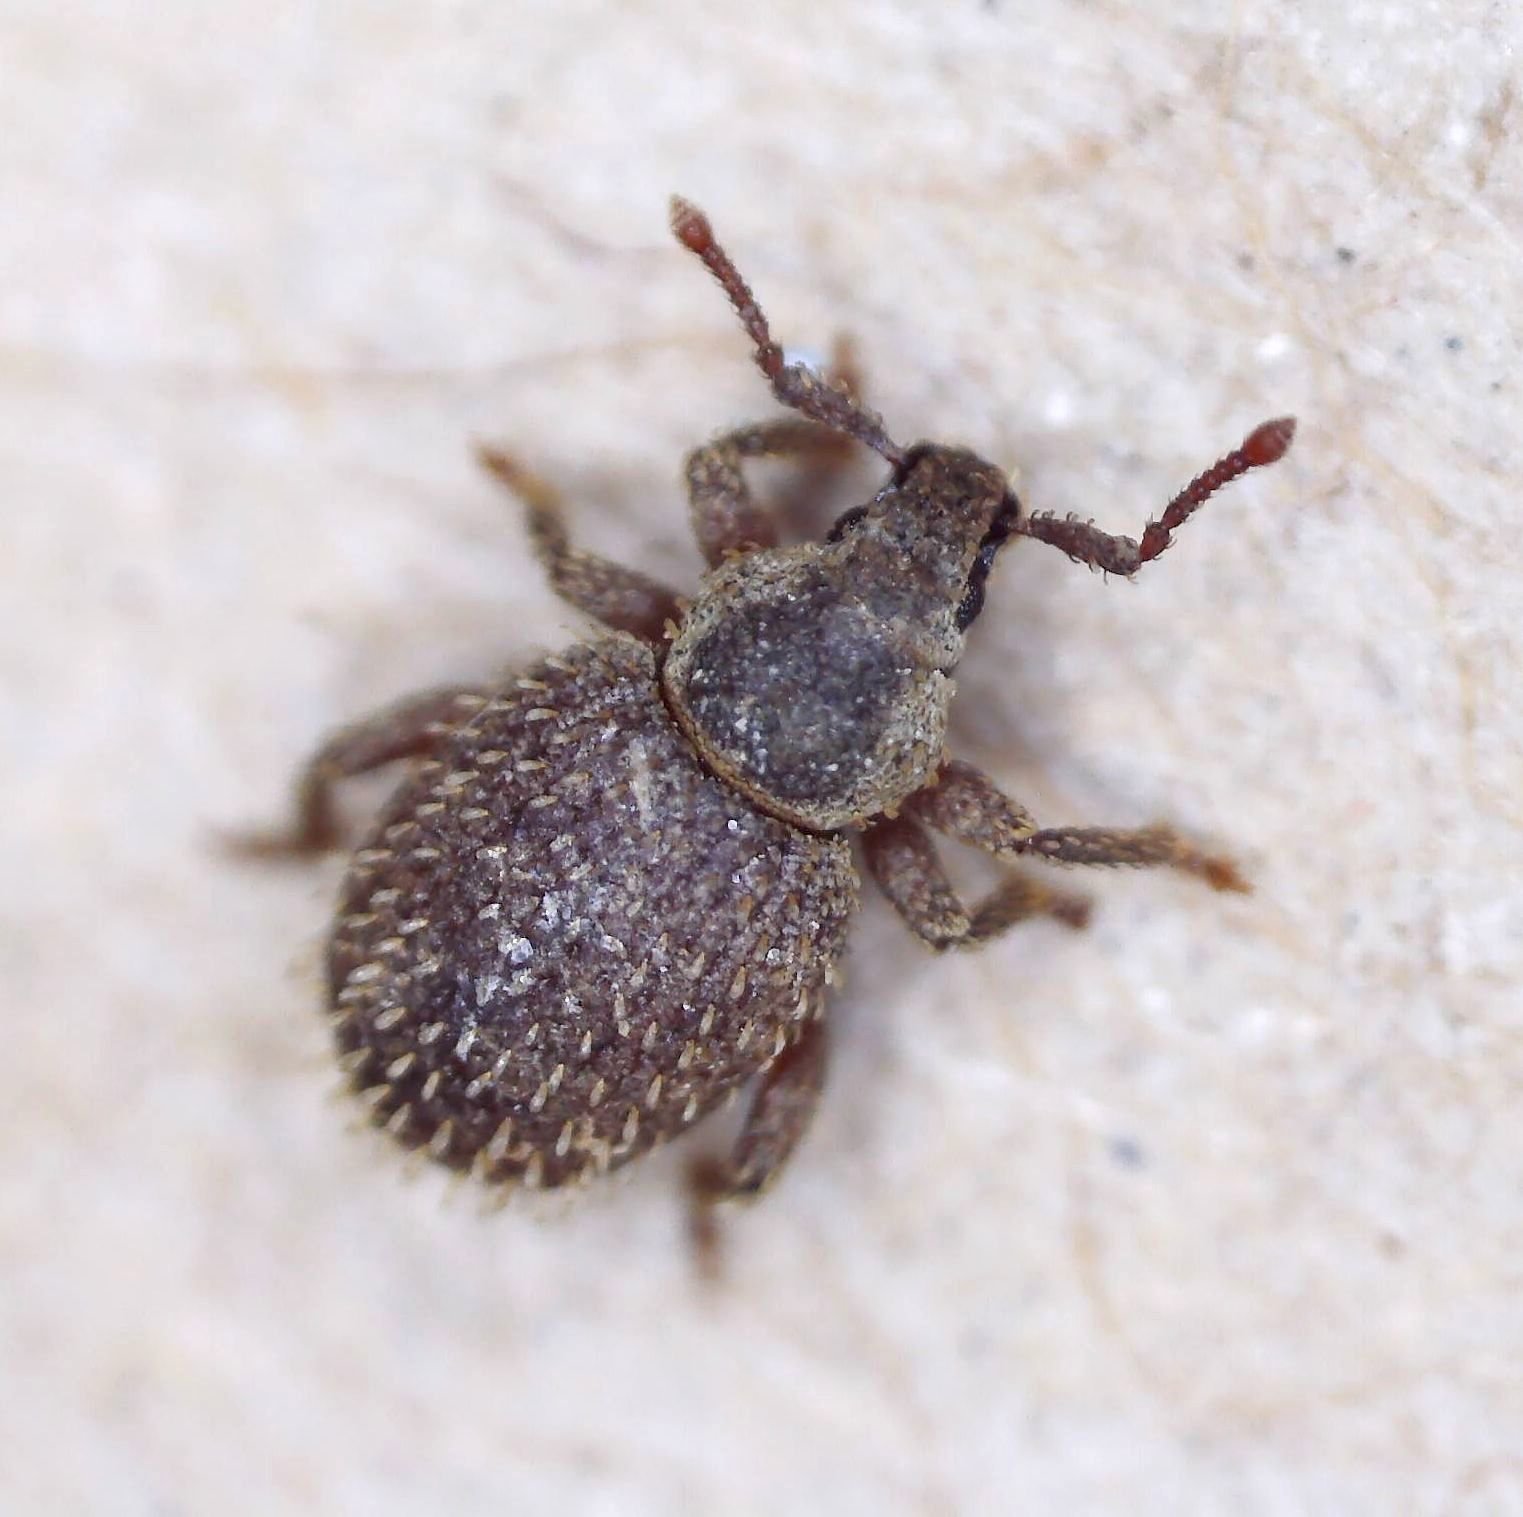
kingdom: Animalia
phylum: Arthropoda
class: Insecta
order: Coleoptera
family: Curculionidae
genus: Cathormiocerus
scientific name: Cathormiocerus aristatus
